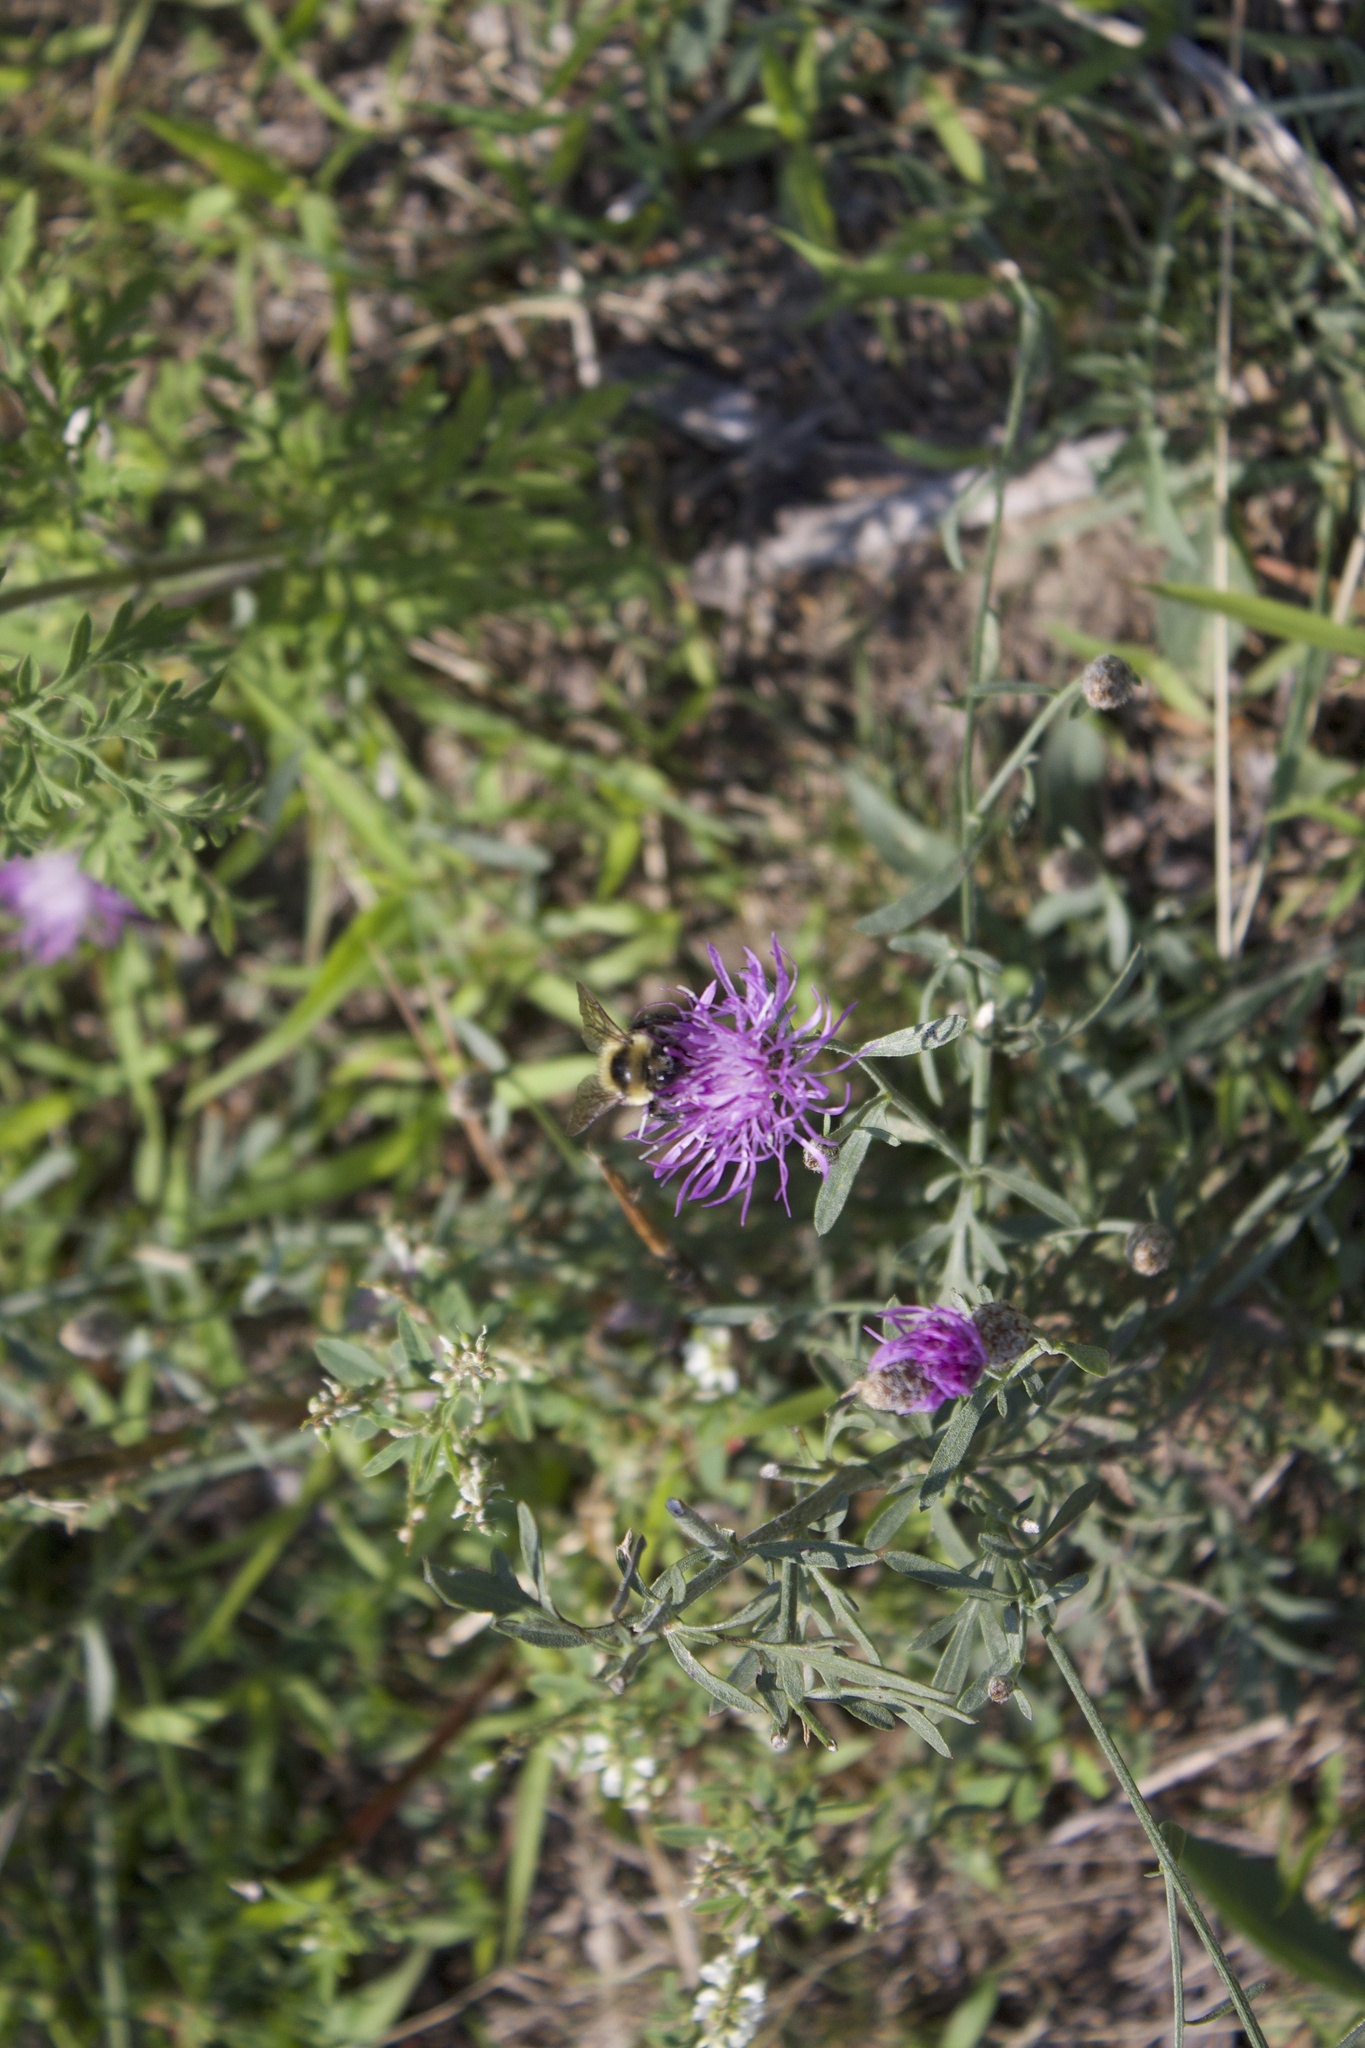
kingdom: Animalia
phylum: Arthropoda
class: Insecta
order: Hymenoptera
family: Apidae
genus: Bombus
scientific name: Bombus rufocinctus
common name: Red-belted bumble bee
